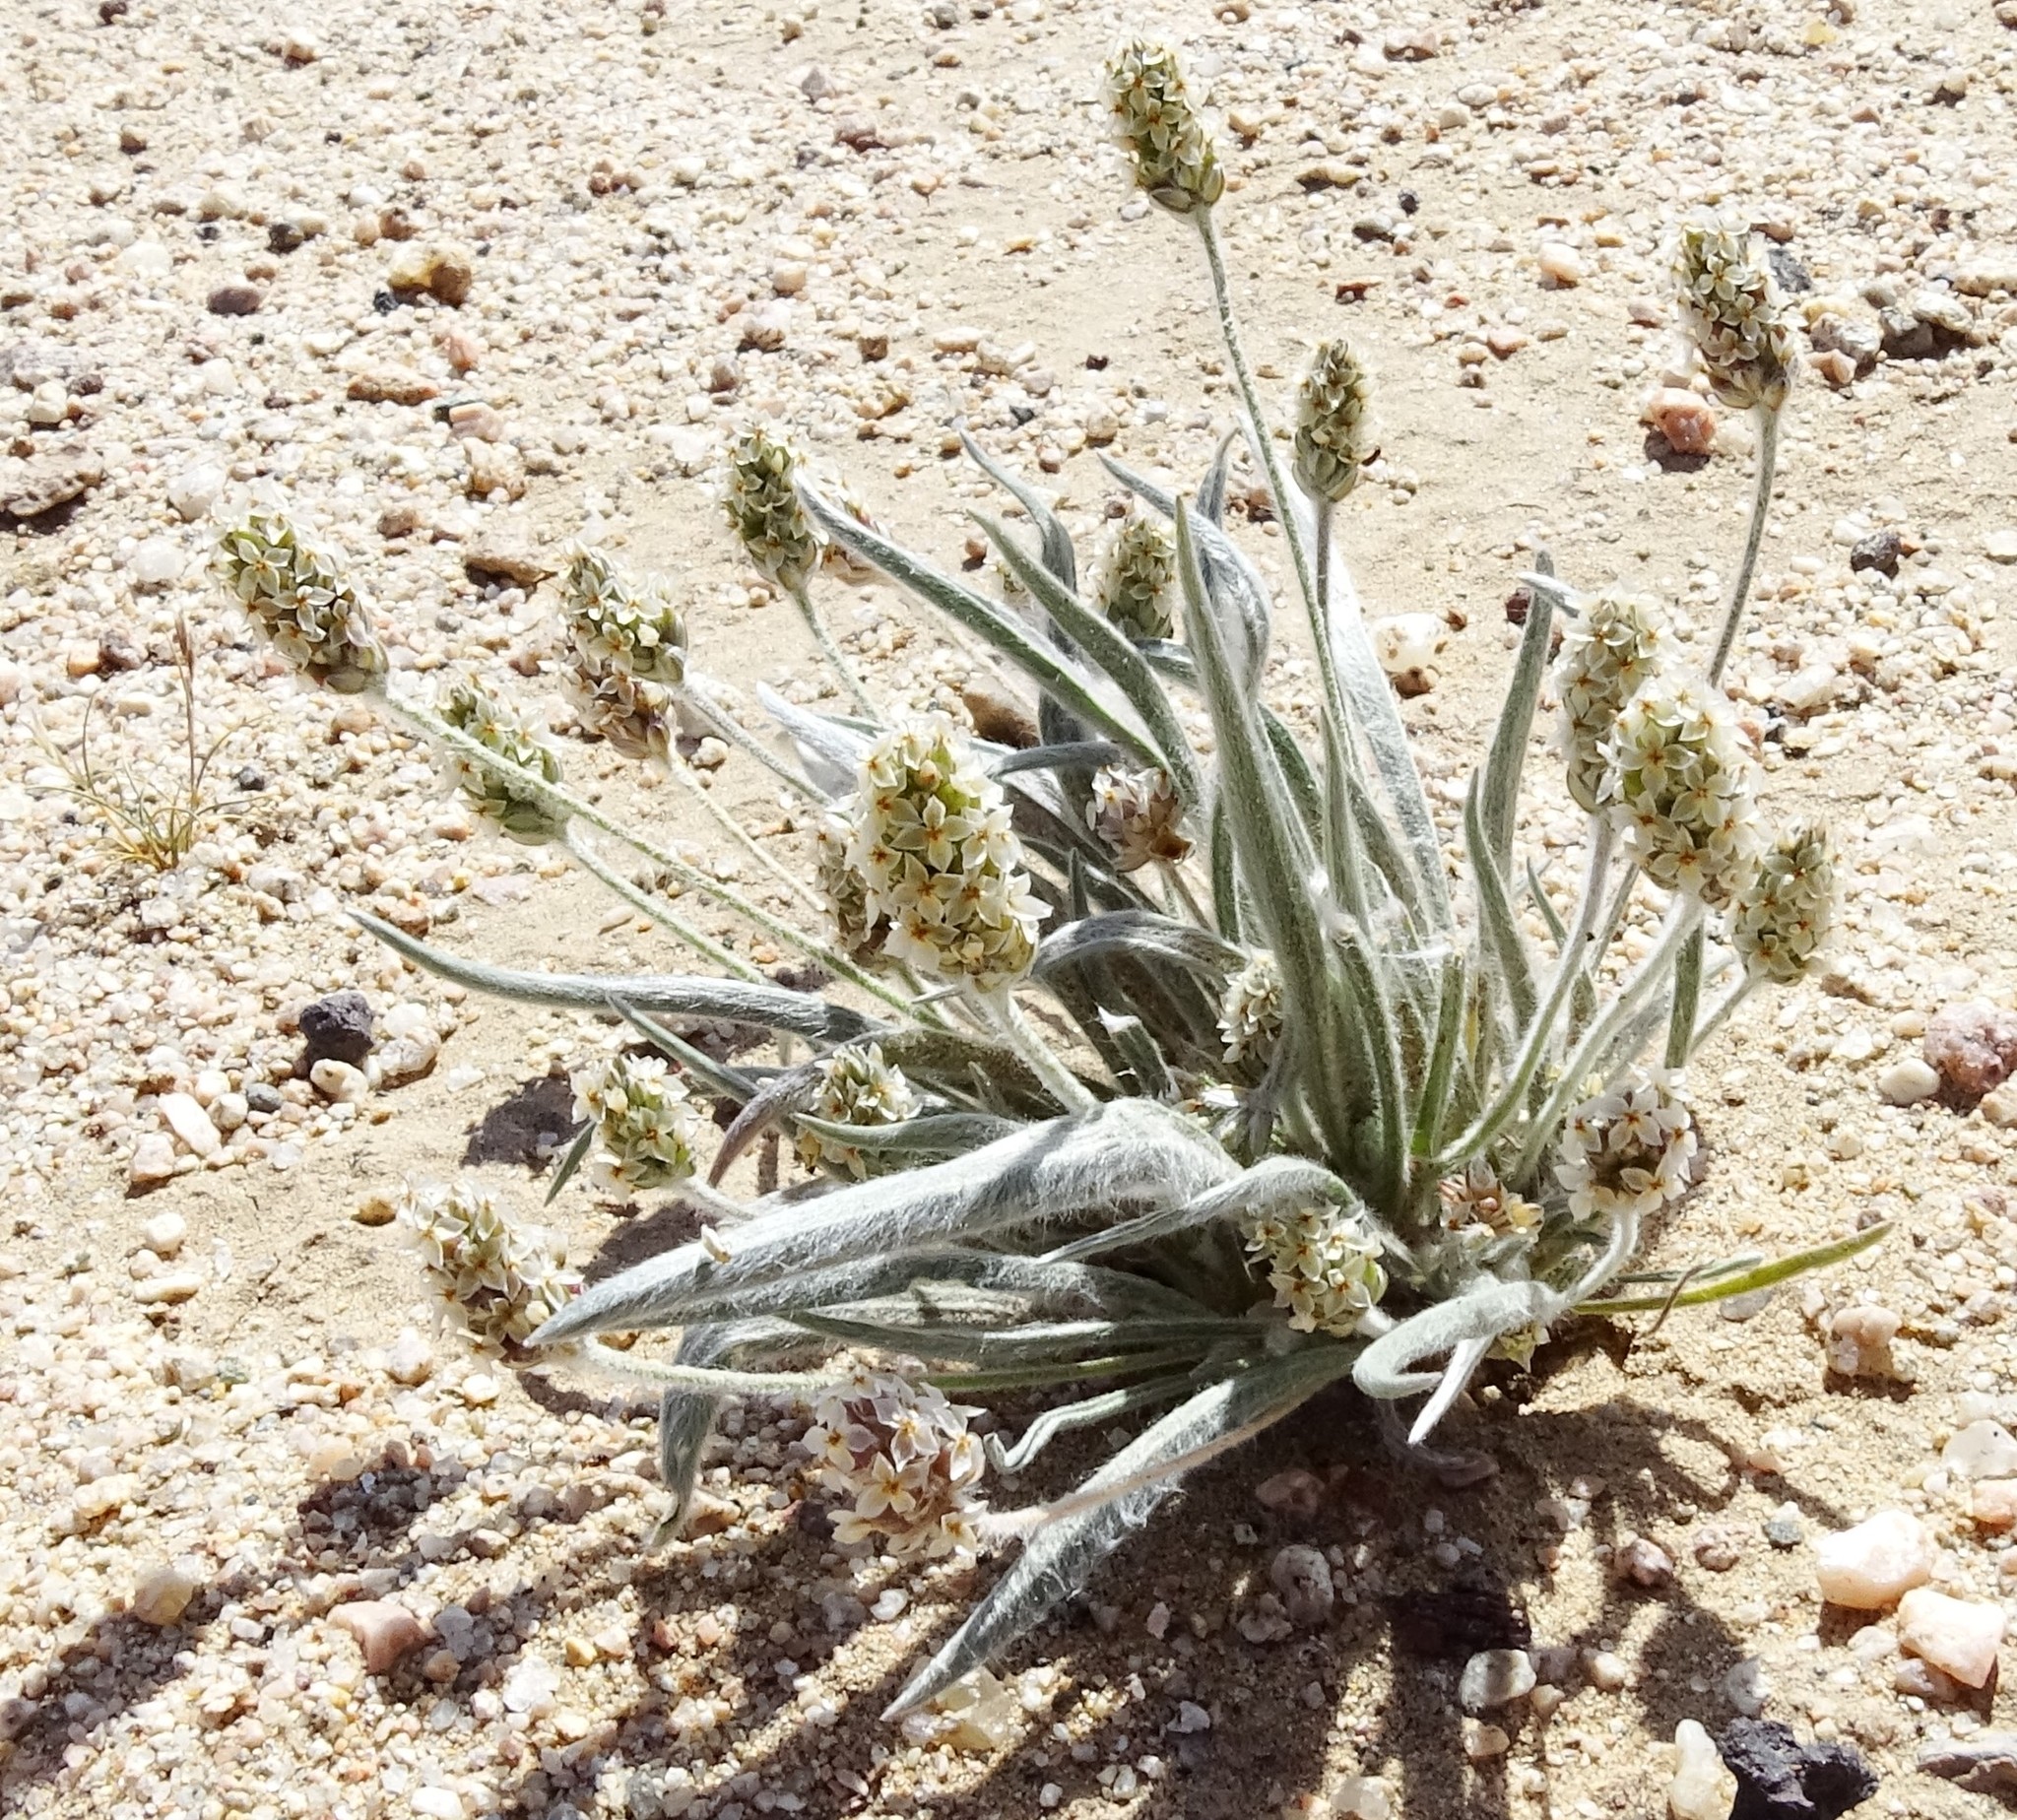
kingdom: Plantae
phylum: Tracheophyta
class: Magnoliopsida
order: Lamiales
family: Plantaginaceae
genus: Plantago
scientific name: Plantago ovata
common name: Blond plantain
